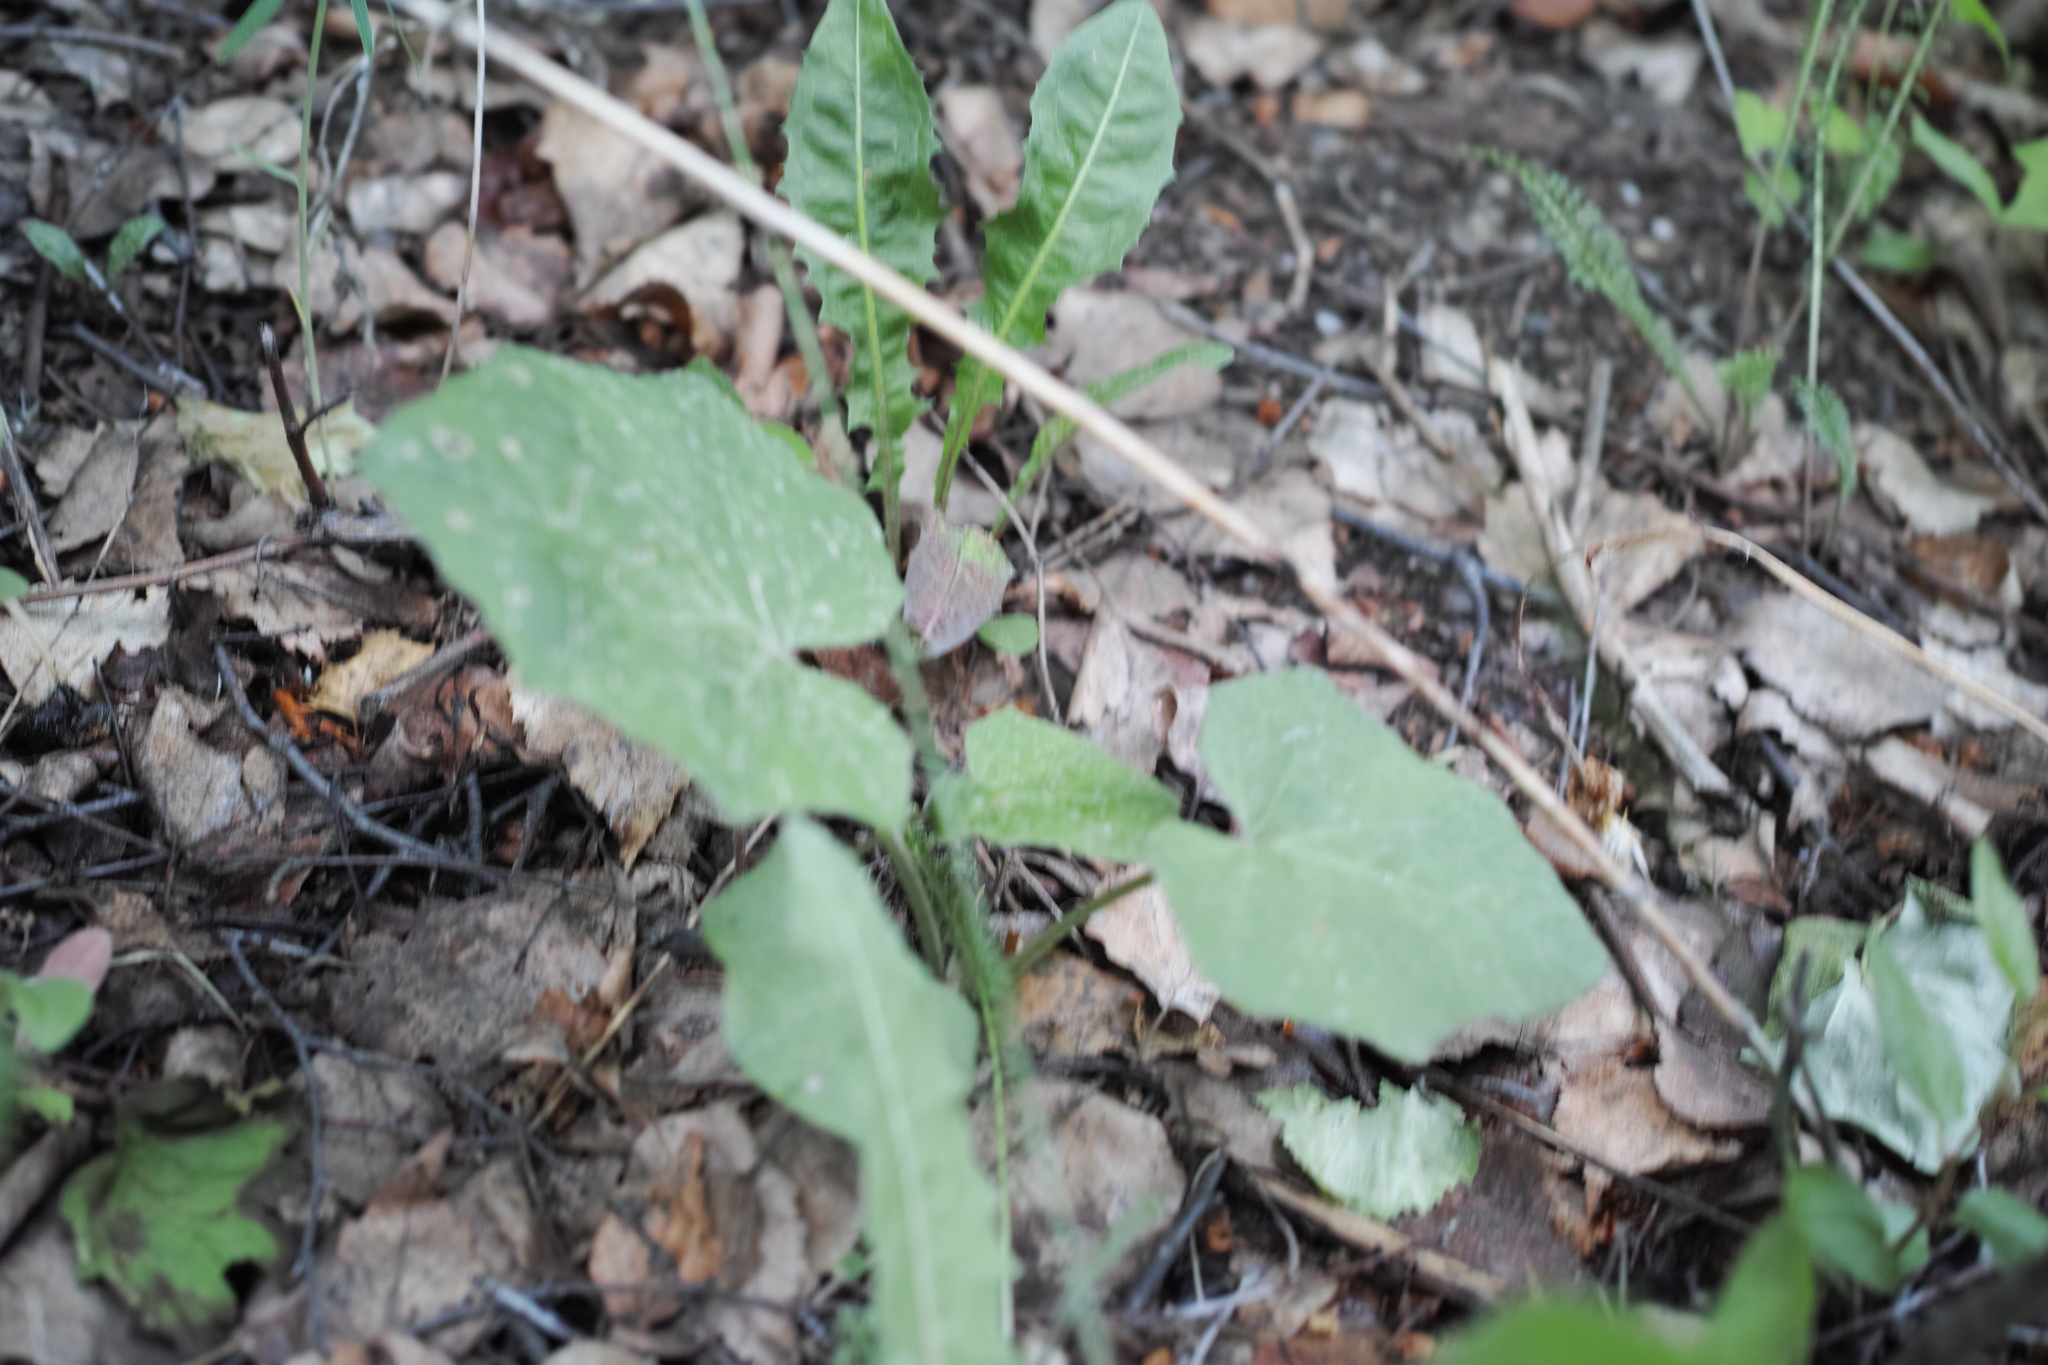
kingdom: Plantae
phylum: Tracheophyta
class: Magnoliopsida
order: Asterales
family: Asteraceae
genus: Tussilago
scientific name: Tussilago farfara
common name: Coltsfoot
